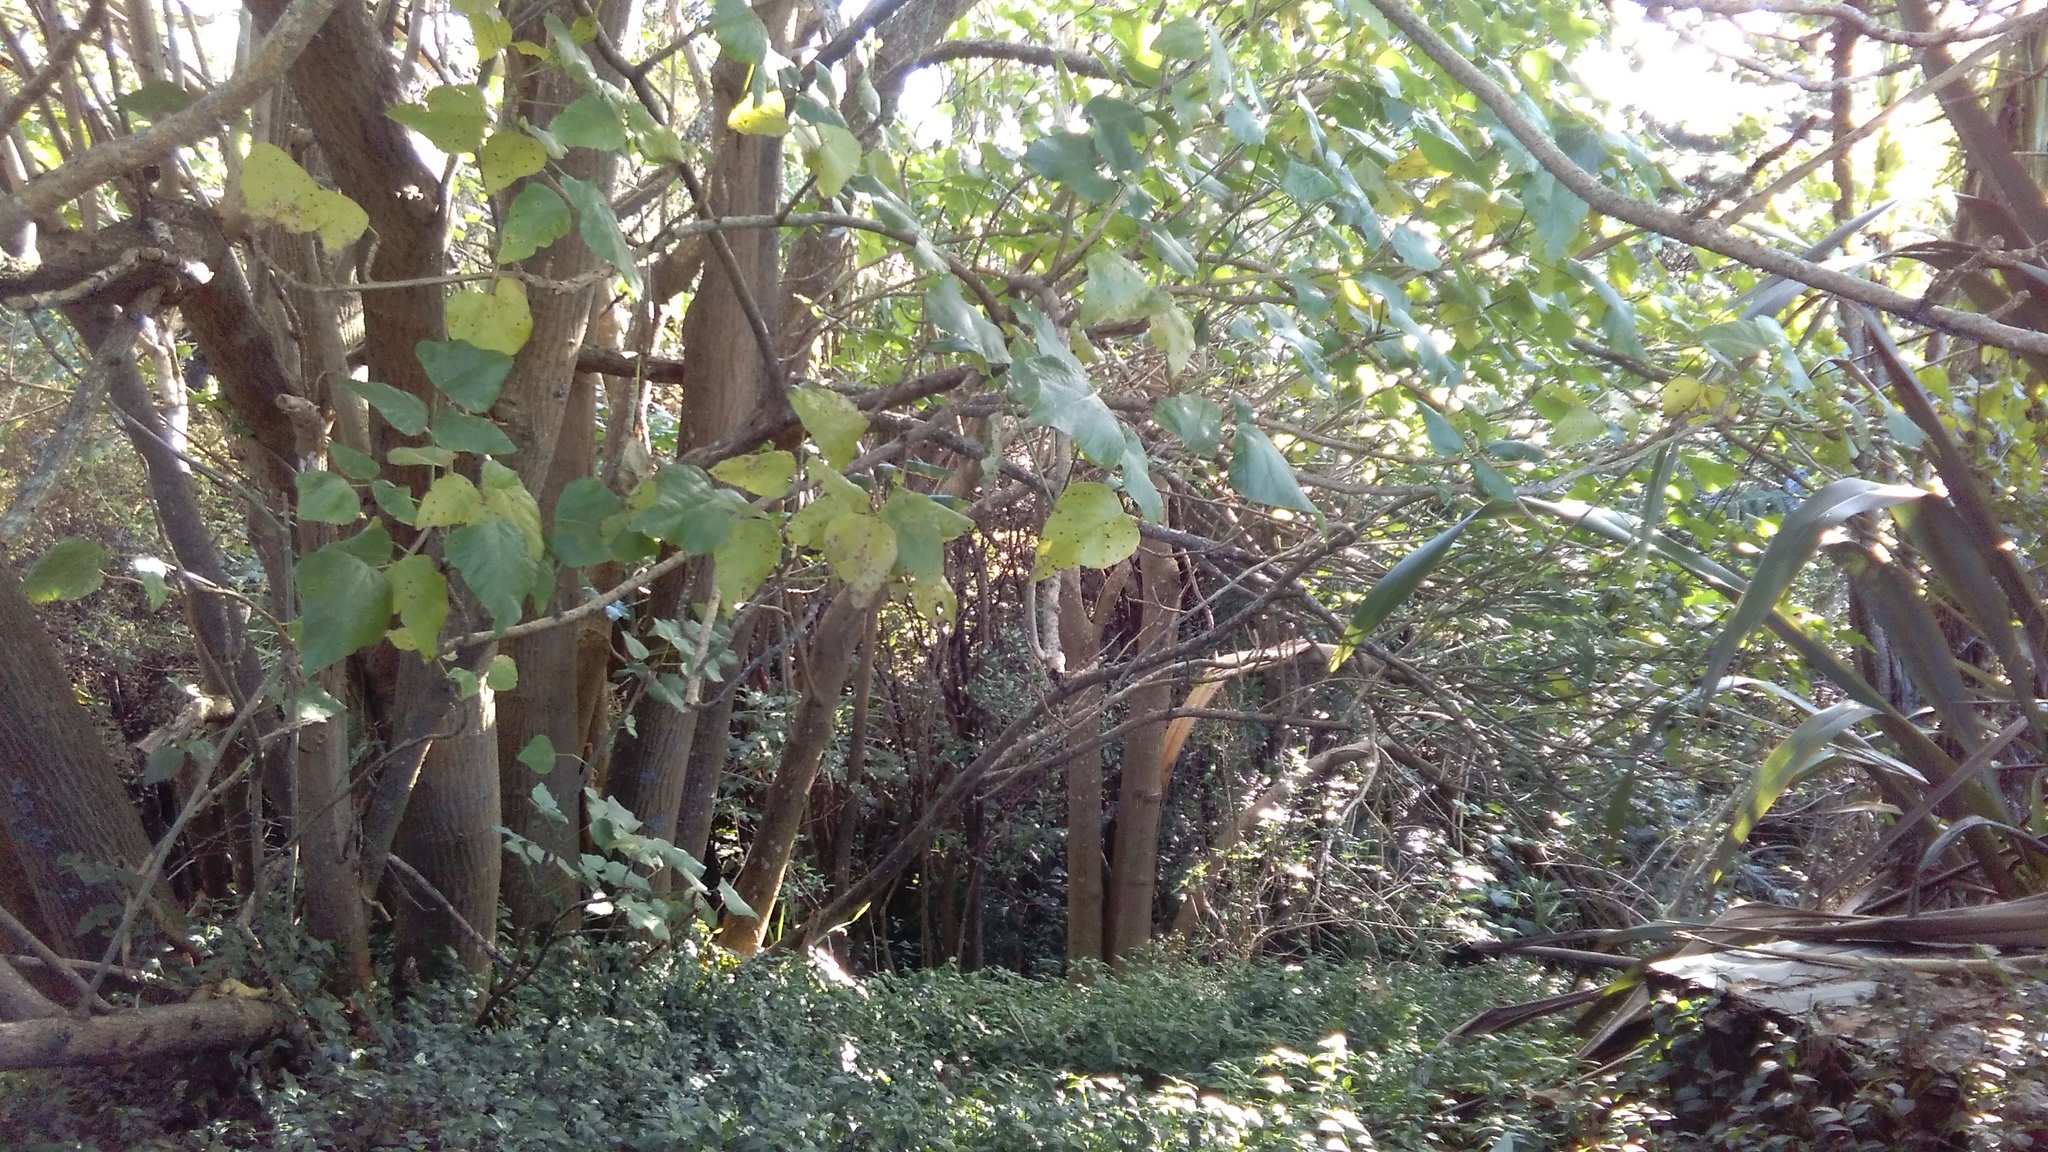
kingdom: Plantae
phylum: Tracheophyta
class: Liliopsida
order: Commelinales
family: Commelinaceae
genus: Tradescantia
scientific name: Tradescantia fluminensis
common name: Wandering-jew
